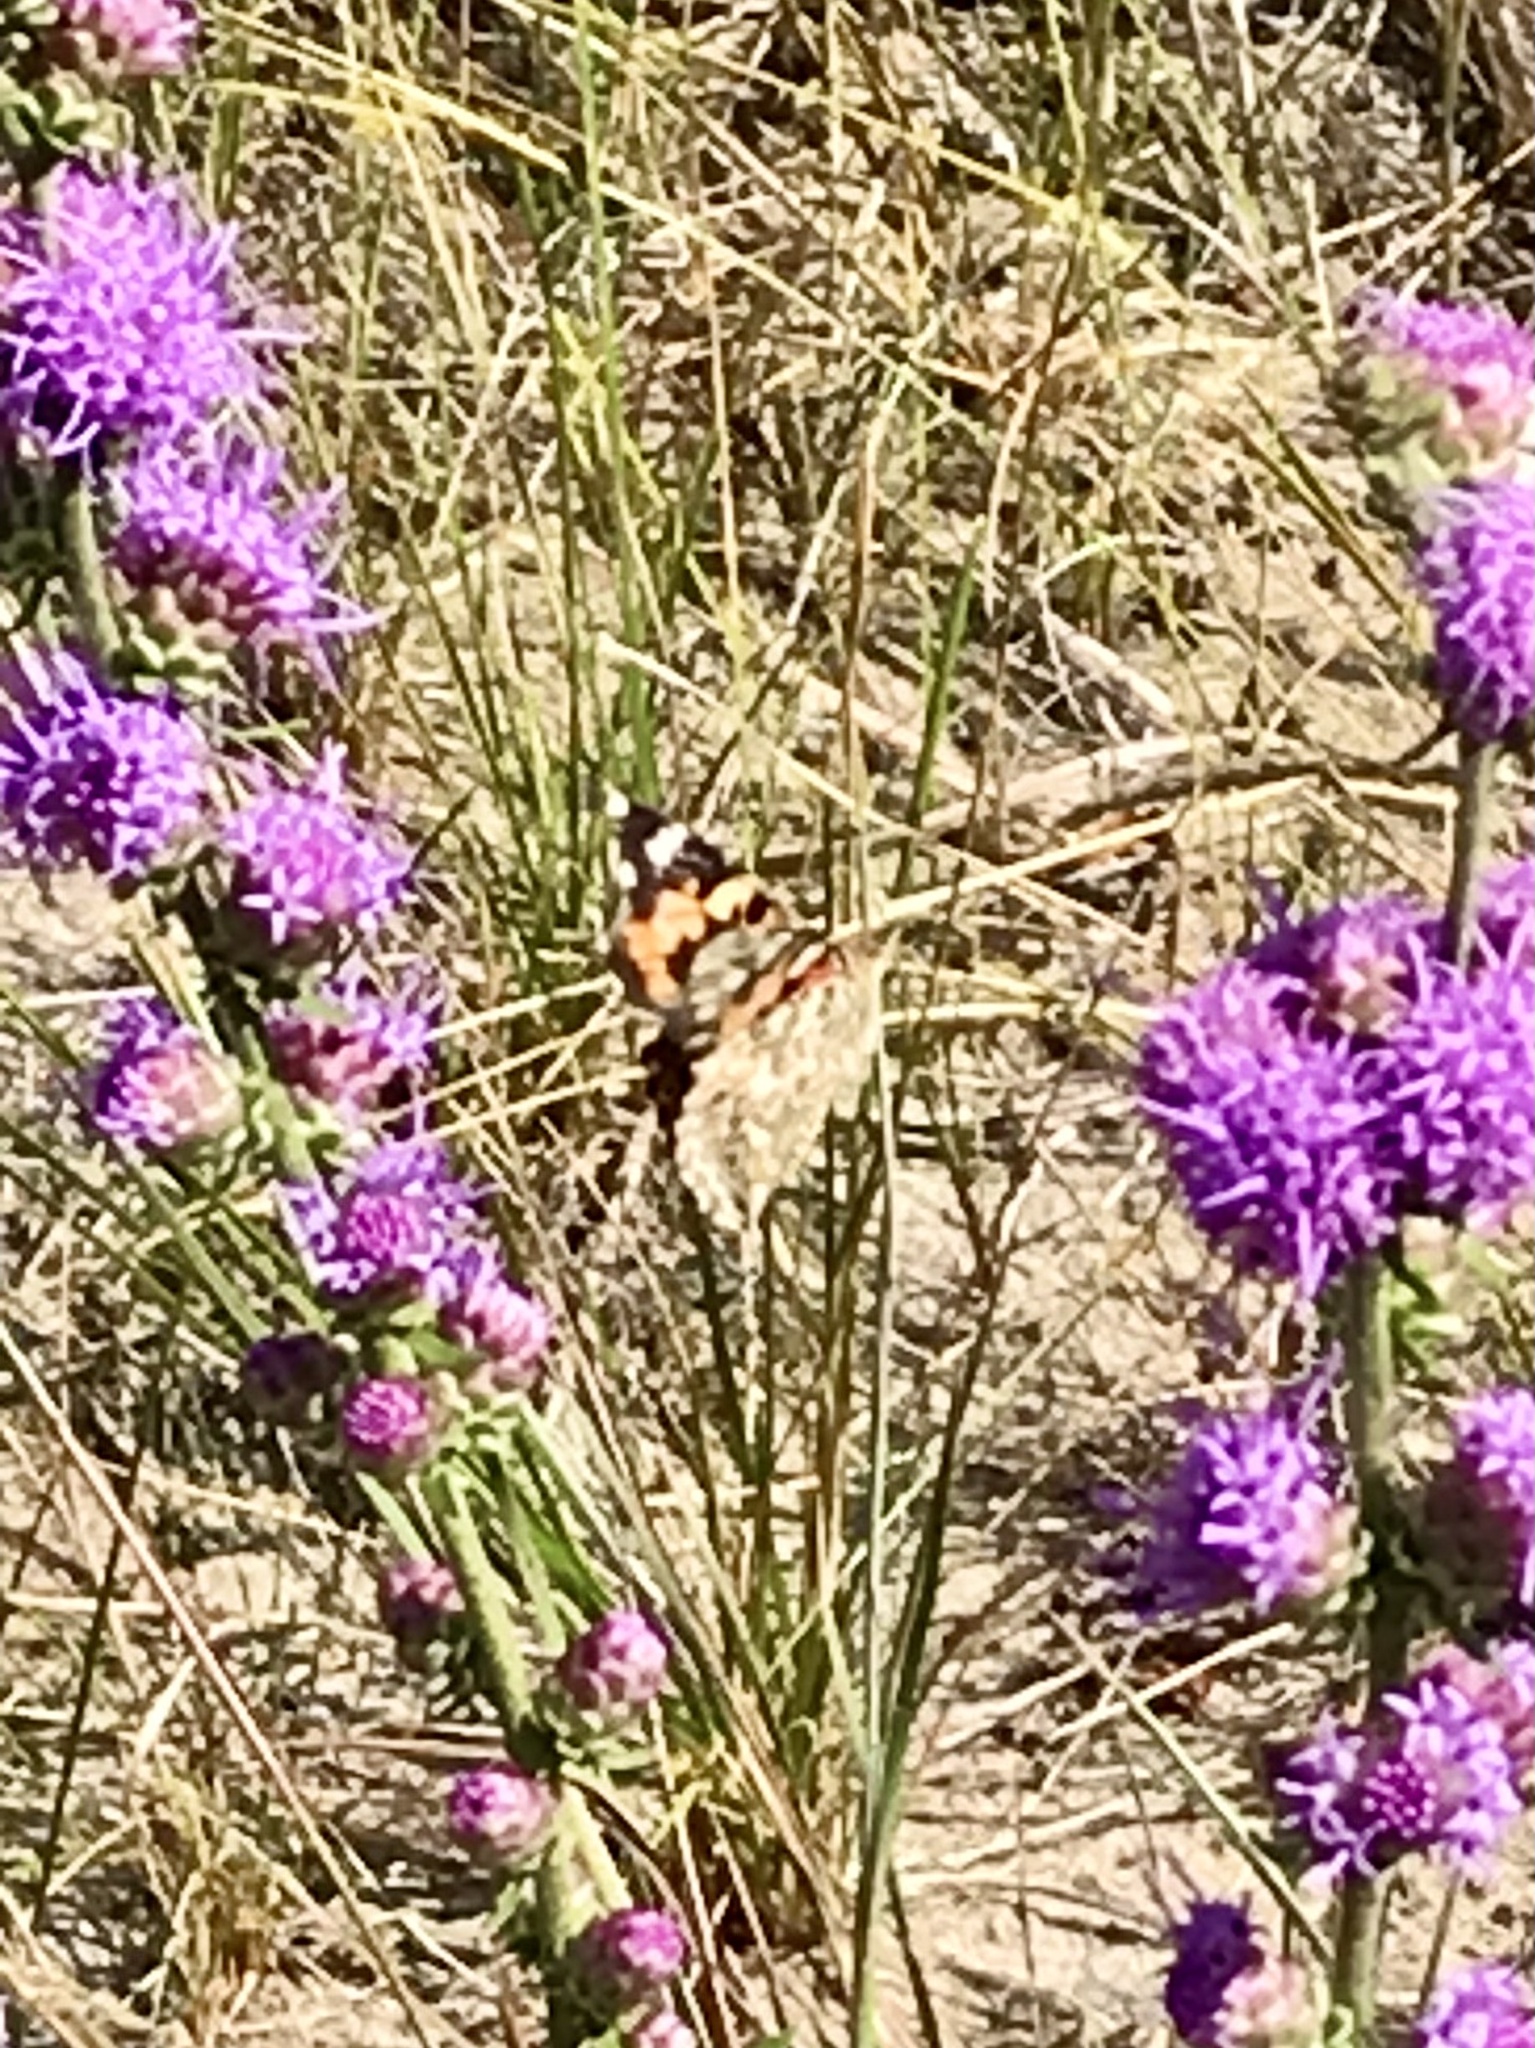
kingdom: Animalia
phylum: Arthropoda
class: Insecta
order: Lepidoptera
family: Nymphalidae
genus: Vanessa
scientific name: Vanessa cardui
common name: Painted lady
